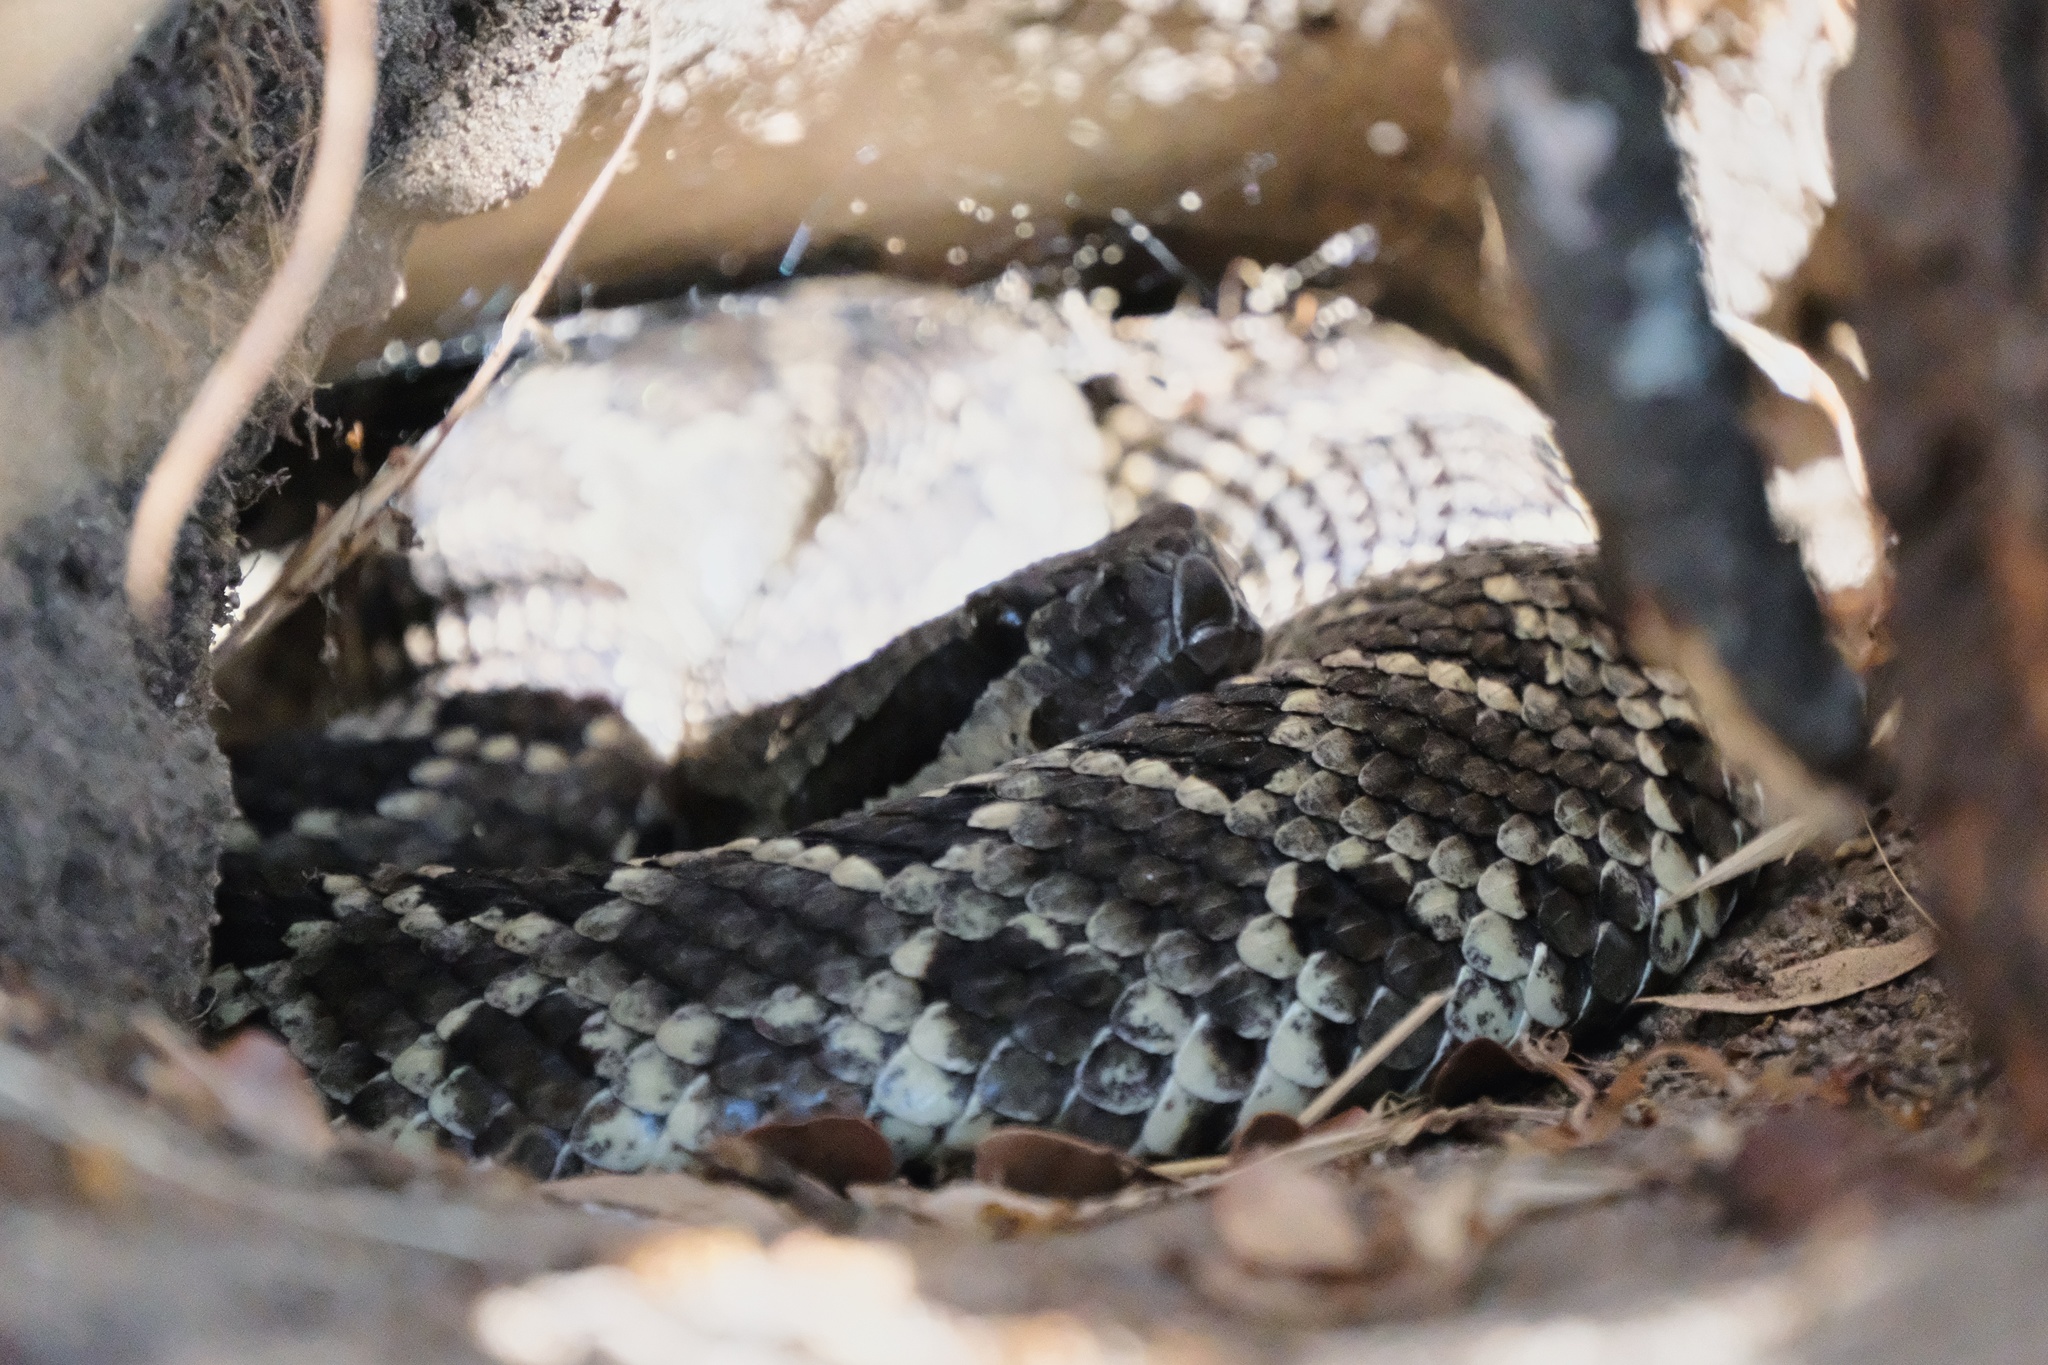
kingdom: Animalia
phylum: Chordata
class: Squamata
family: Viperidae
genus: Crotalus
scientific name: Crotalus oreganus
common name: Abyssus
